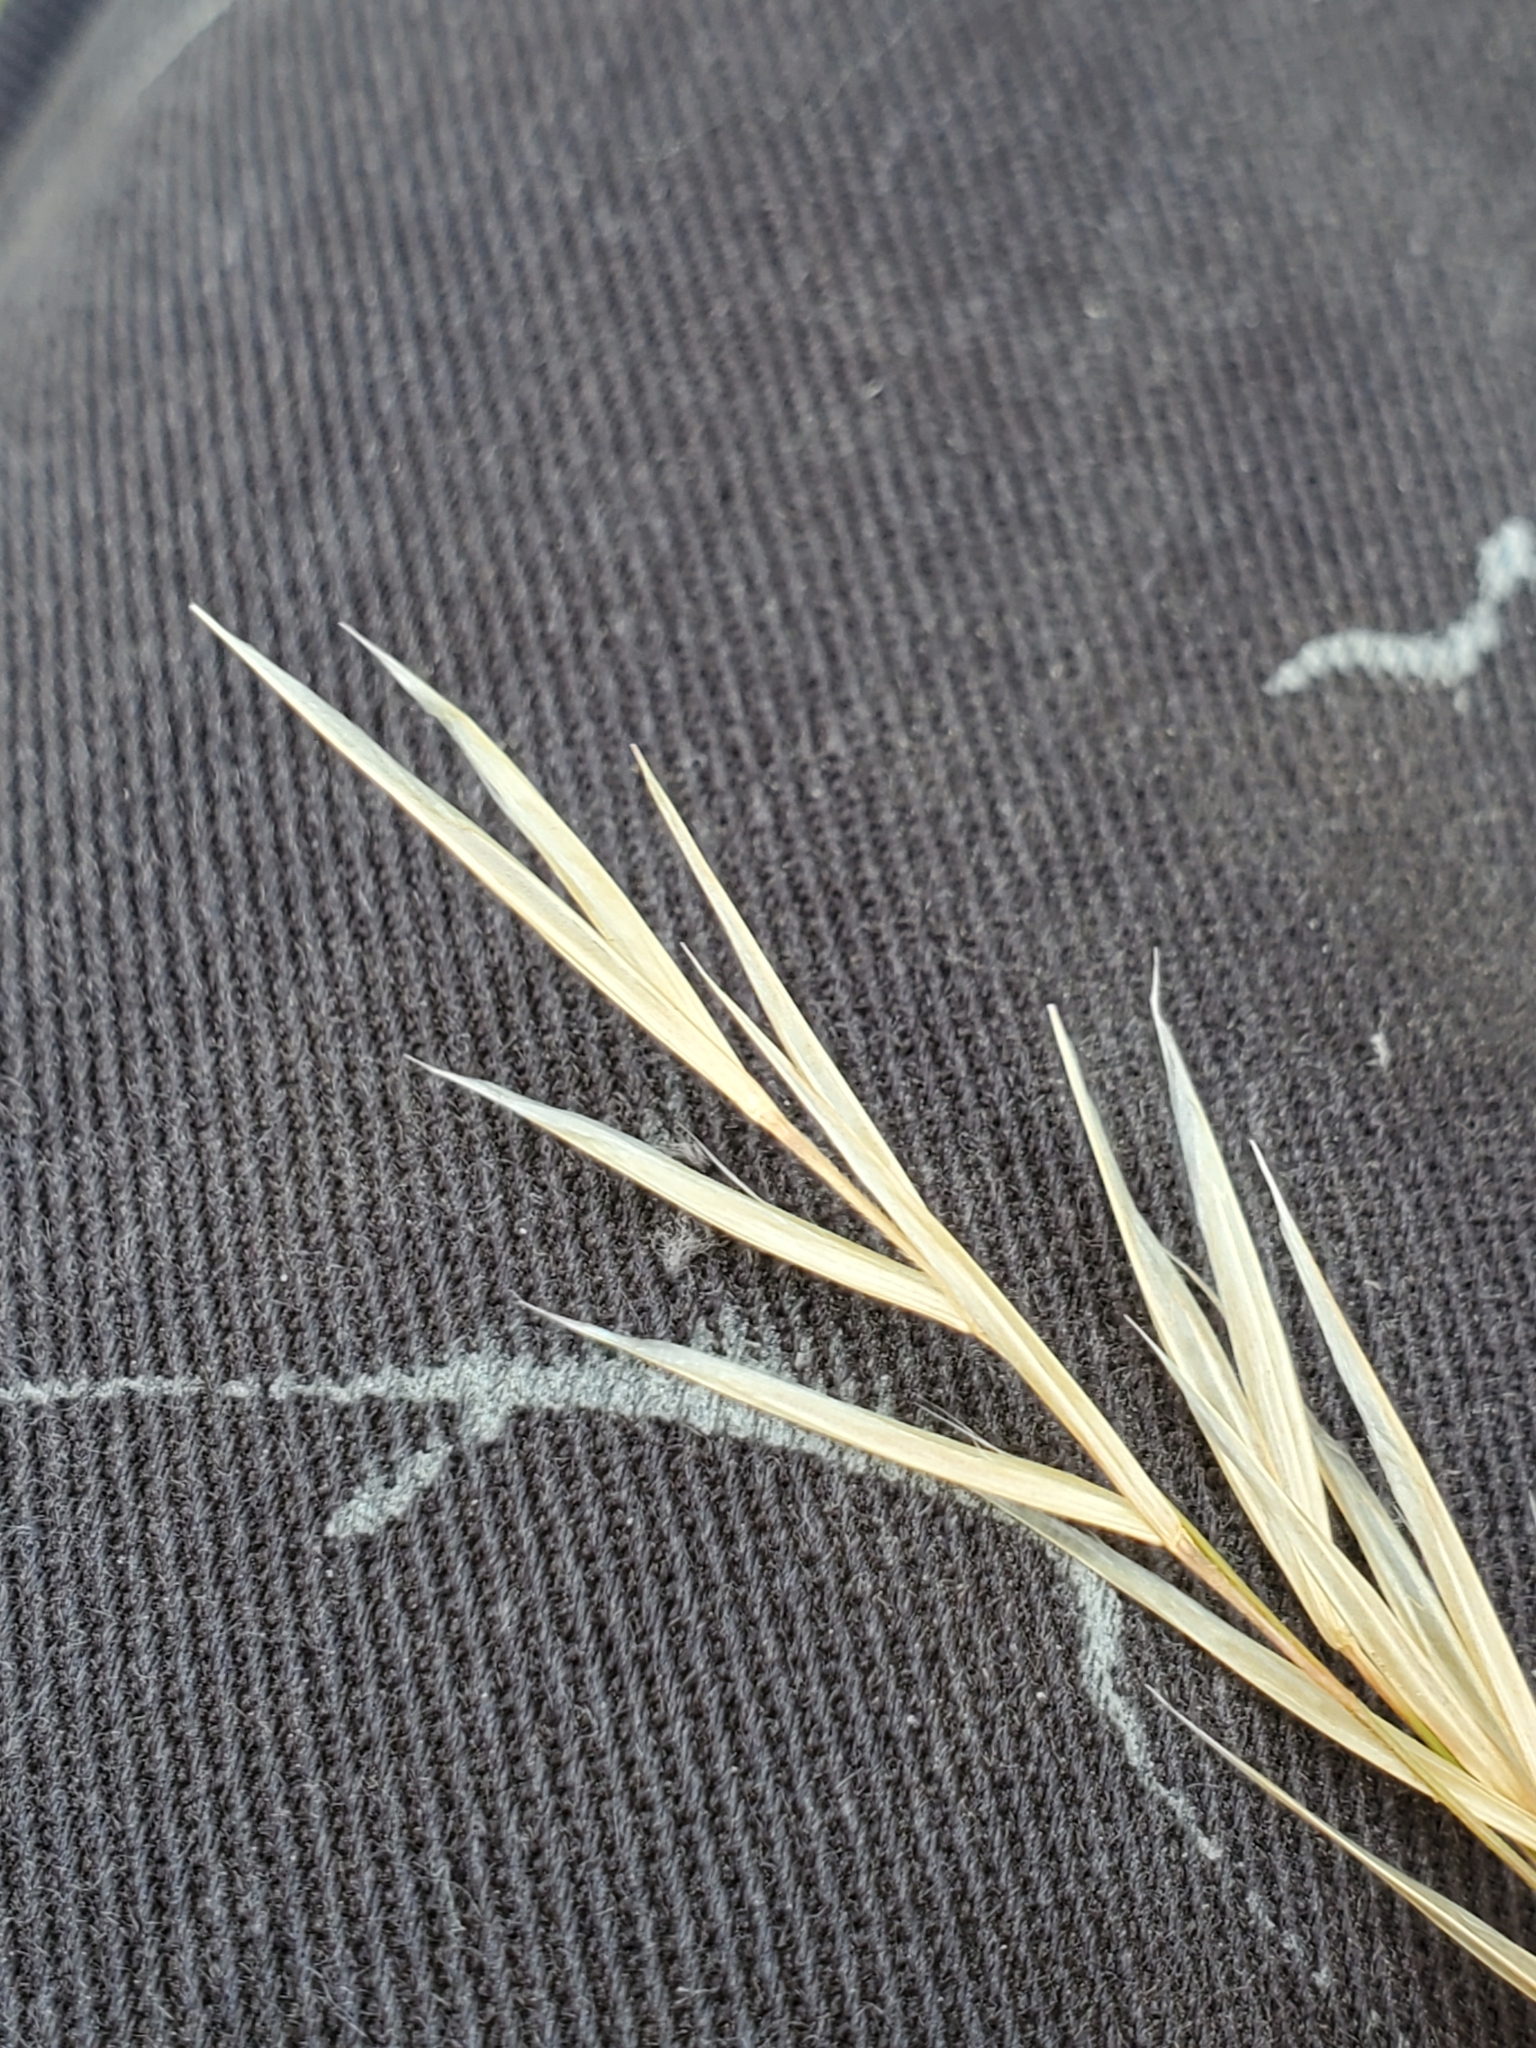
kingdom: Plantae
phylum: Tracheophyta
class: Liliopsida
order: Poales
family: Poaceae
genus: Nassella
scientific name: Nassella leucotricha
